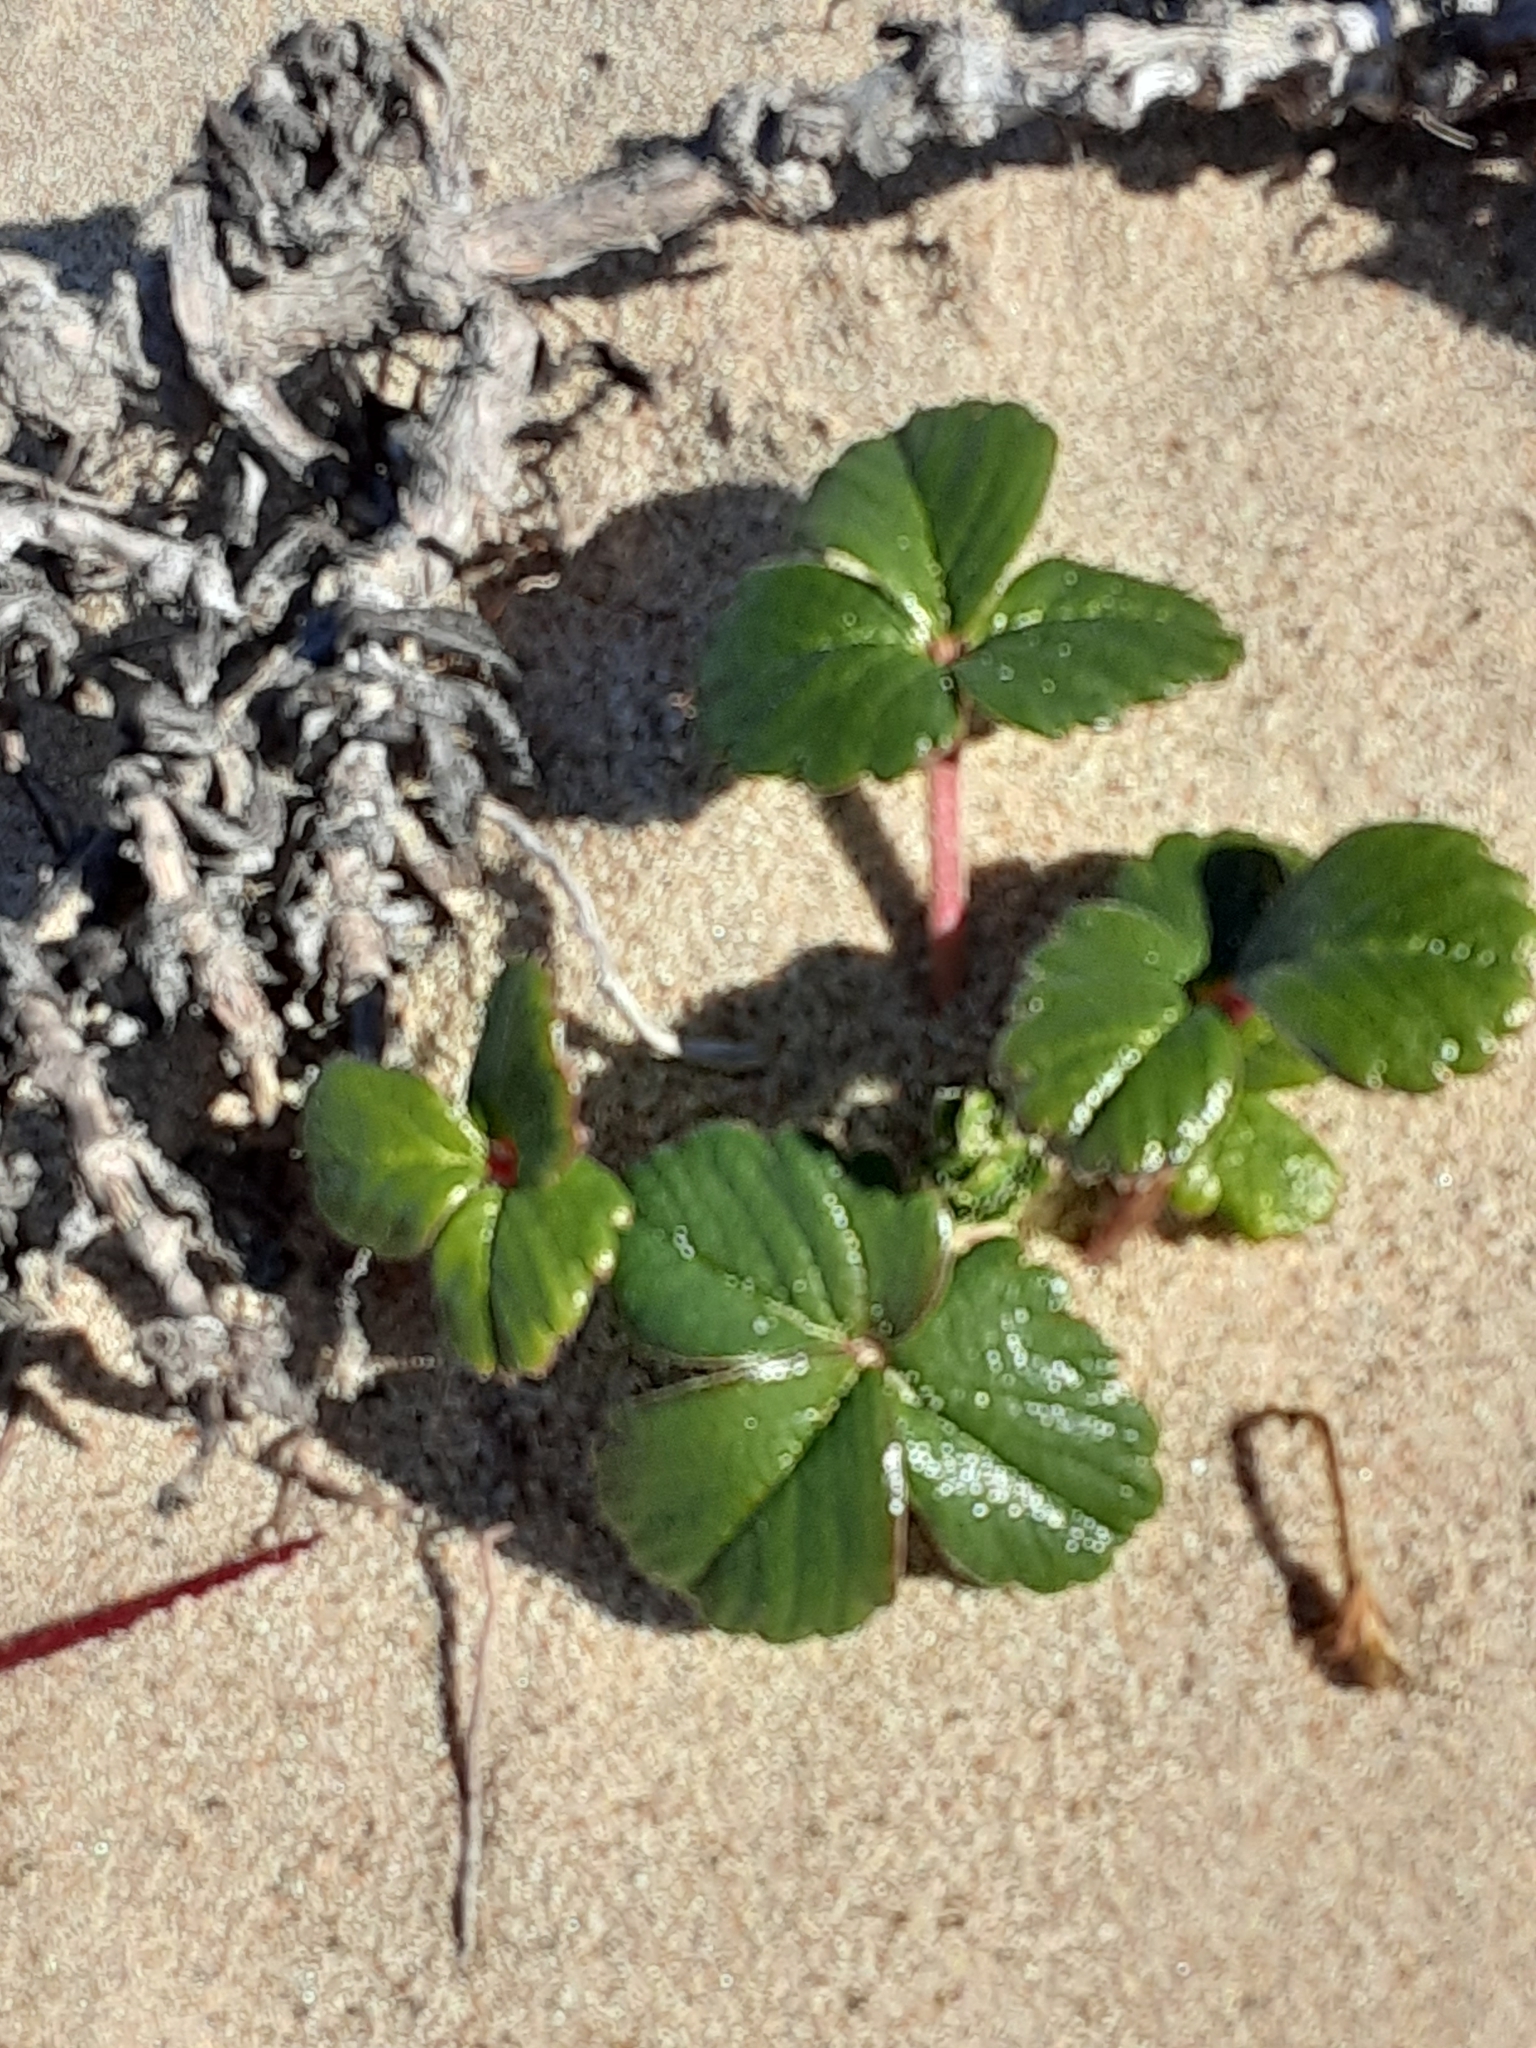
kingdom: Plantae
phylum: Tracheophyta
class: Magnoliopsida
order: Rosales
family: Rosaceae
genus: Fragaria
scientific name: Fragaria chiloensis
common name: Beach strawberry
